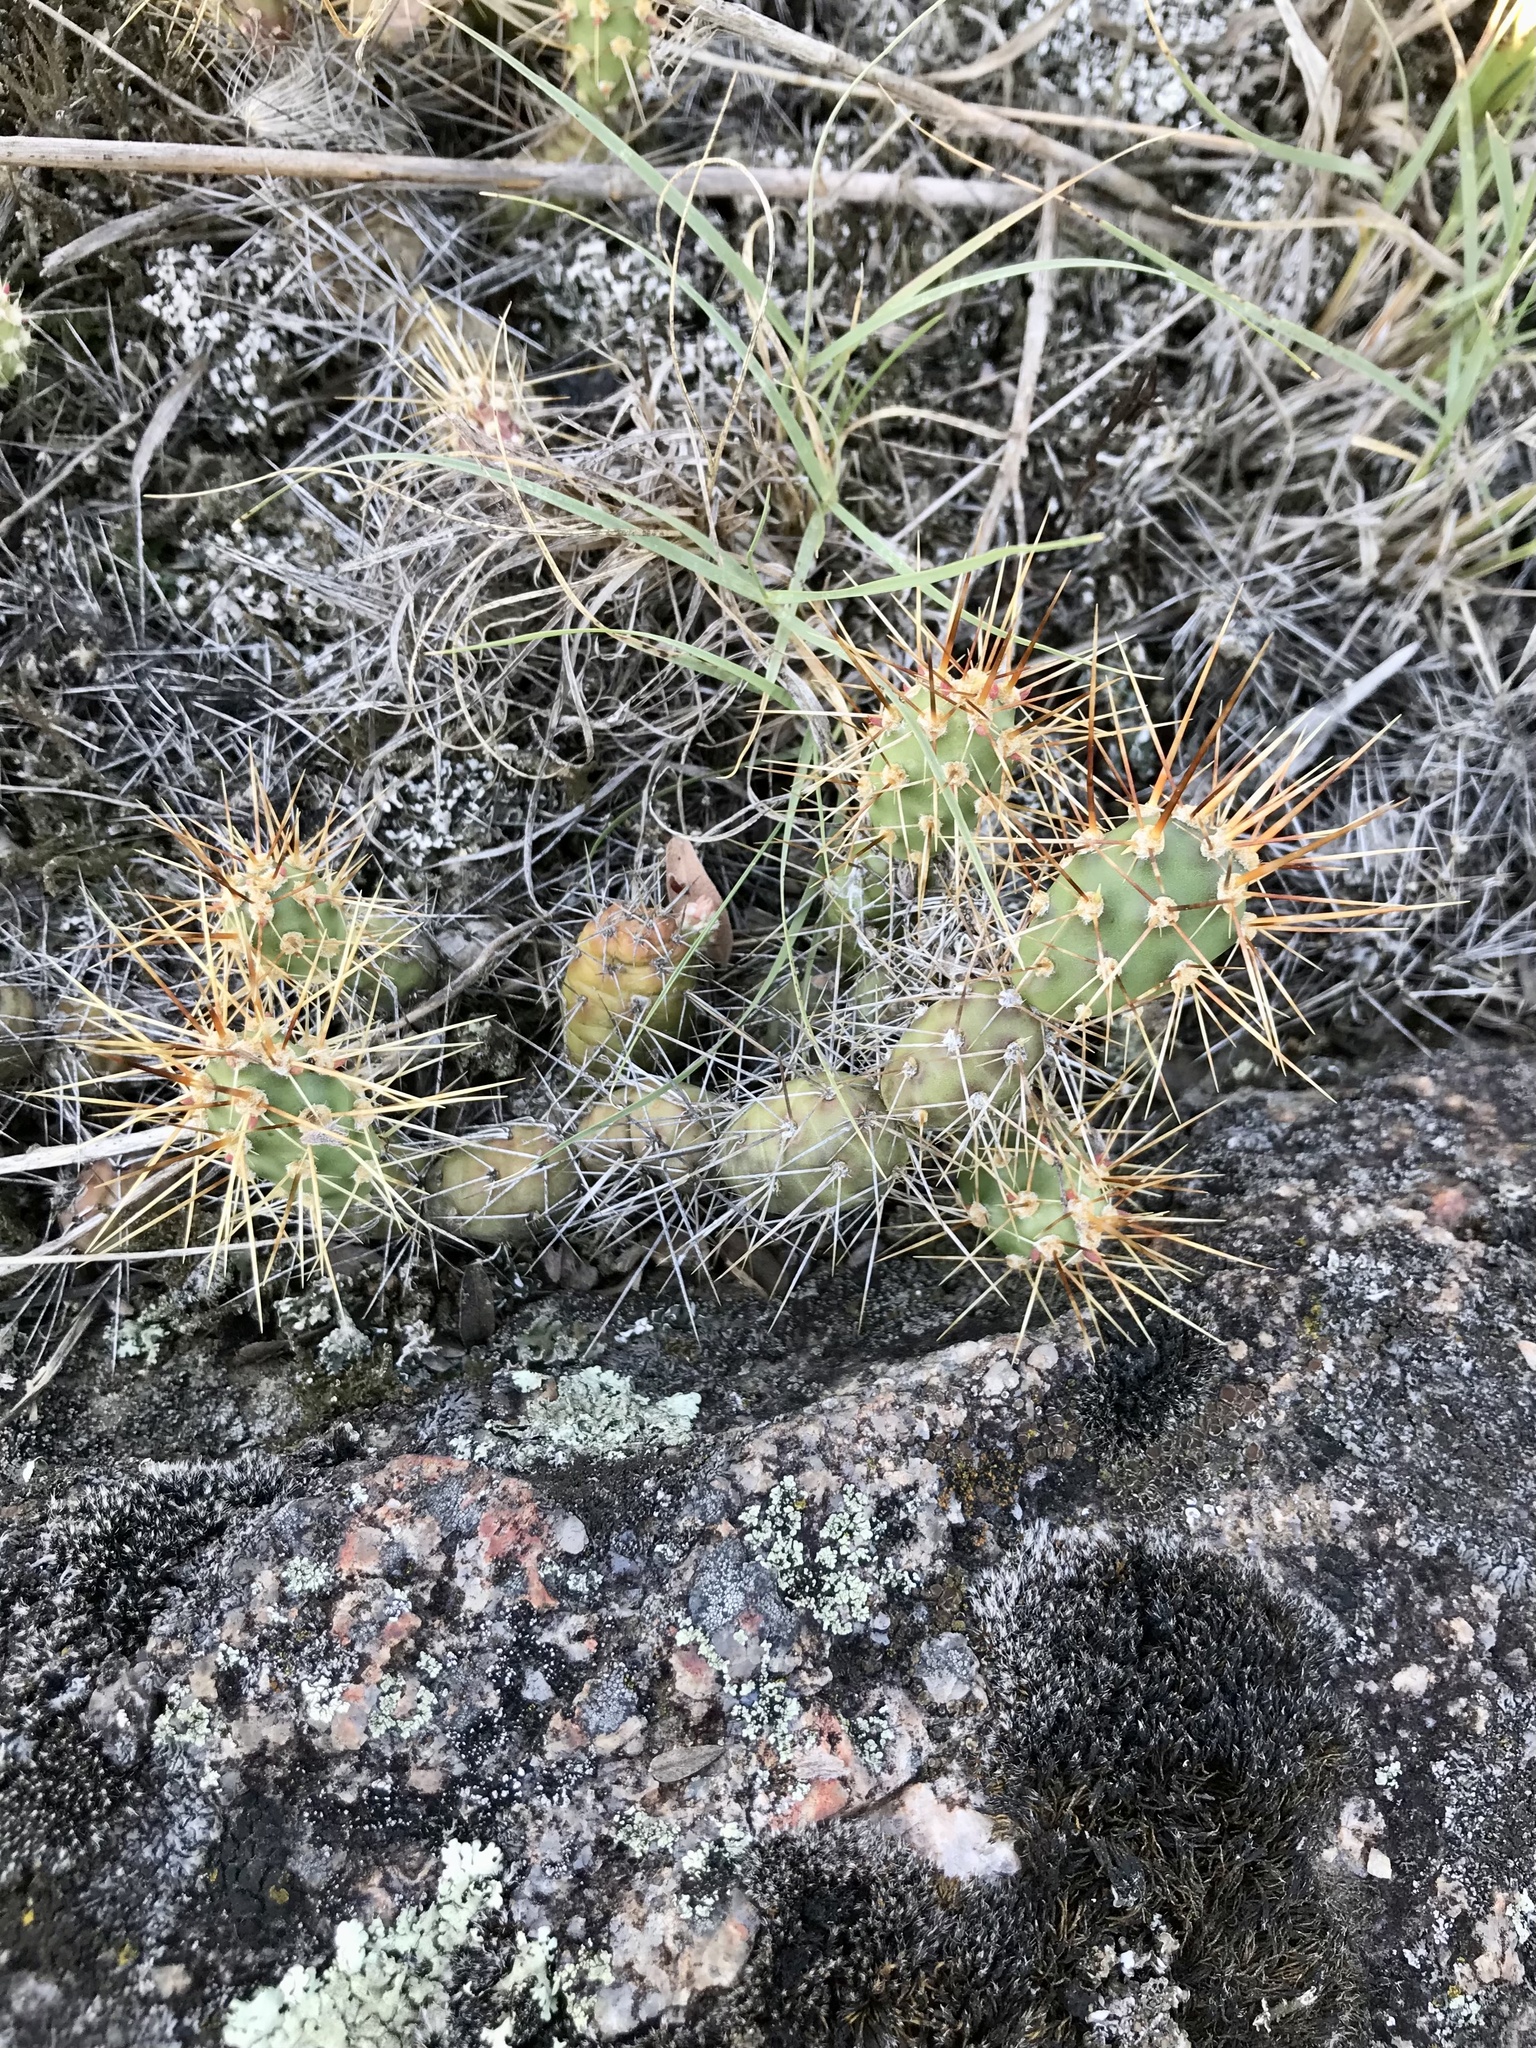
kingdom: Plantae
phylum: Tracheophyta
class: Magnoliopsida
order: Caryophyllales
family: Cactaceae
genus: Opuntia
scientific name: Opuntia fragilis
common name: Brittle cactus
